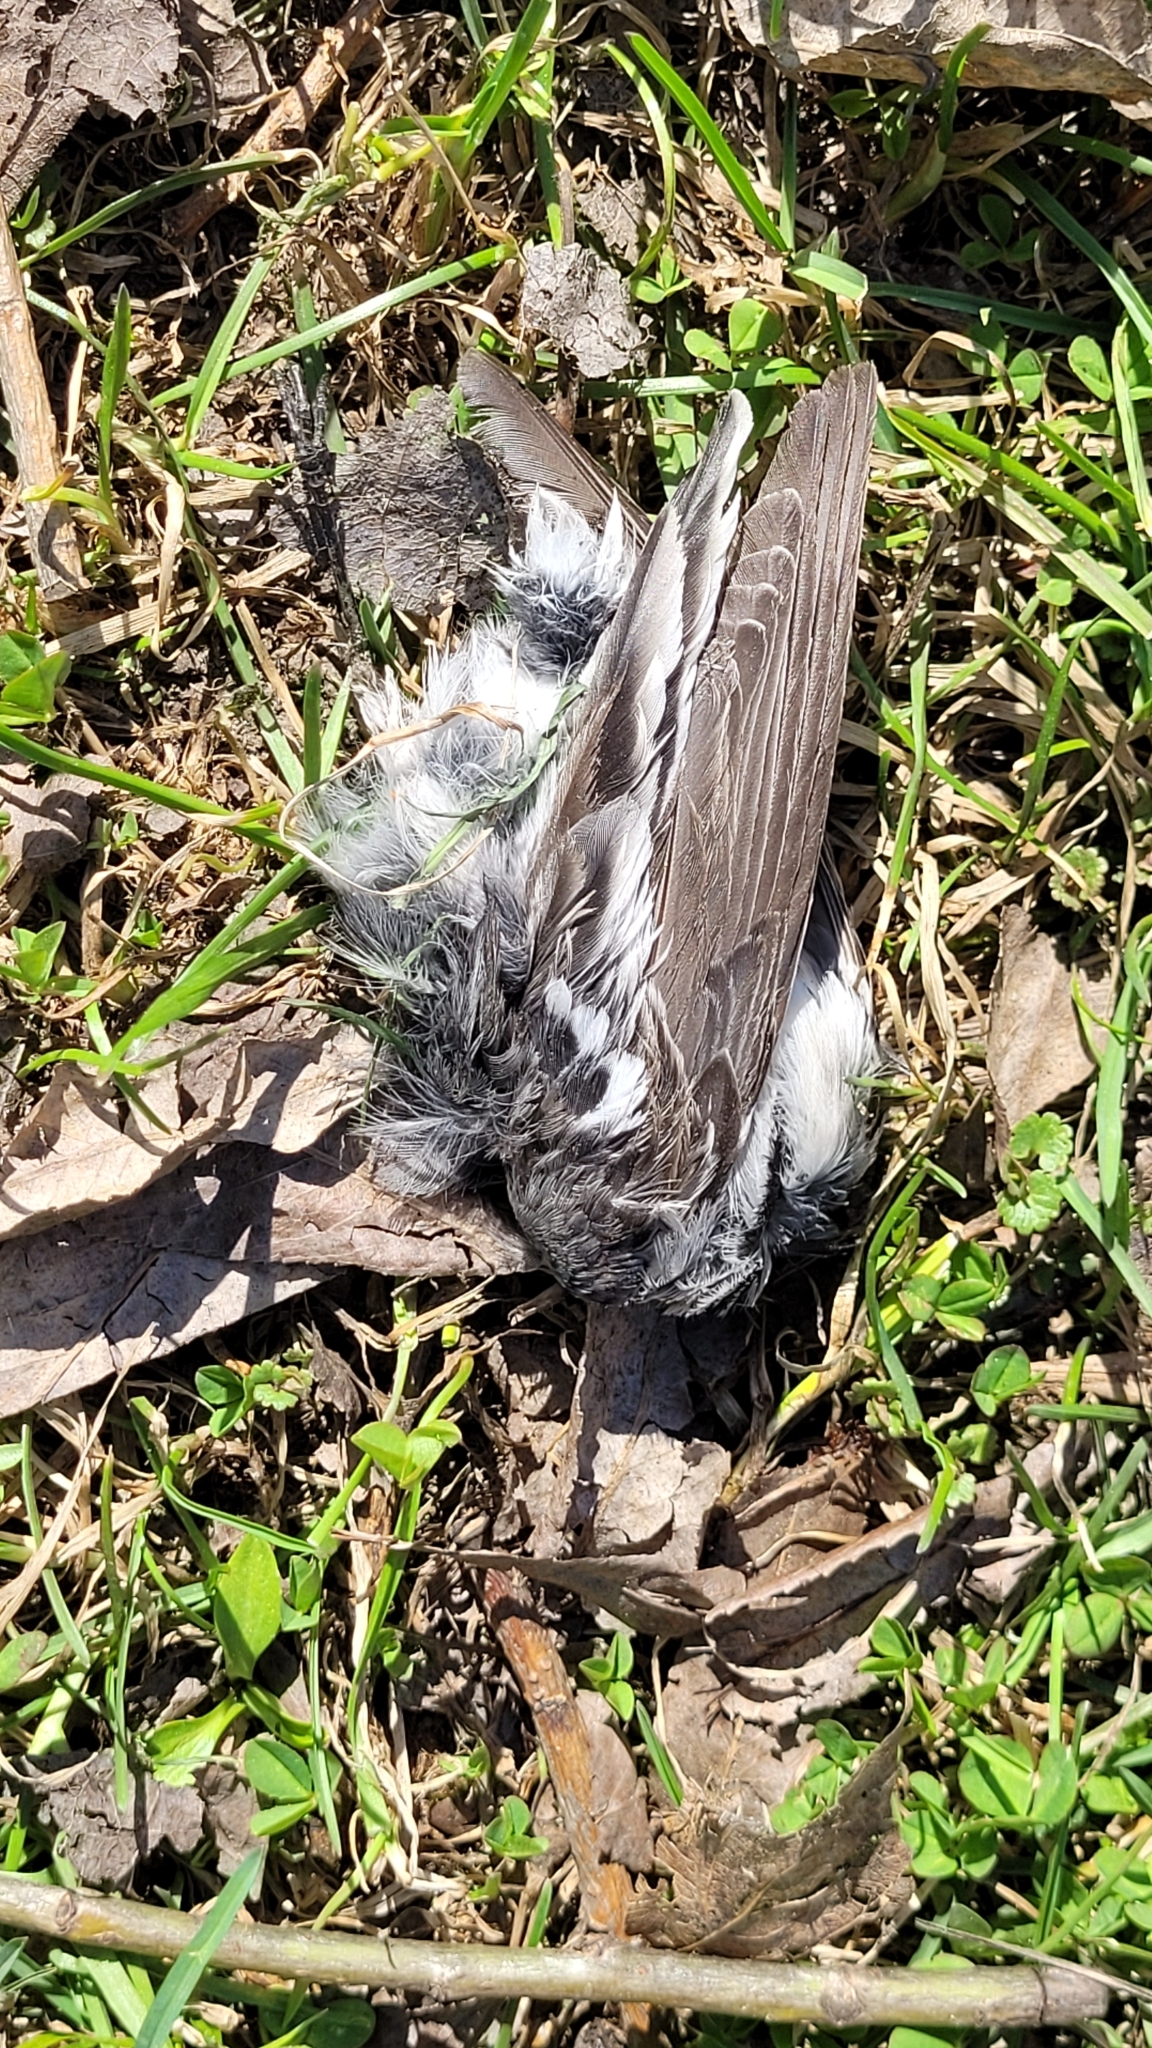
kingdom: Animalia
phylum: Chordata
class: Aves
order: Passeriformes
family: Motacillidae
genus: Motacilla
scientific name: Motacilla alba
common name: White wagtail
